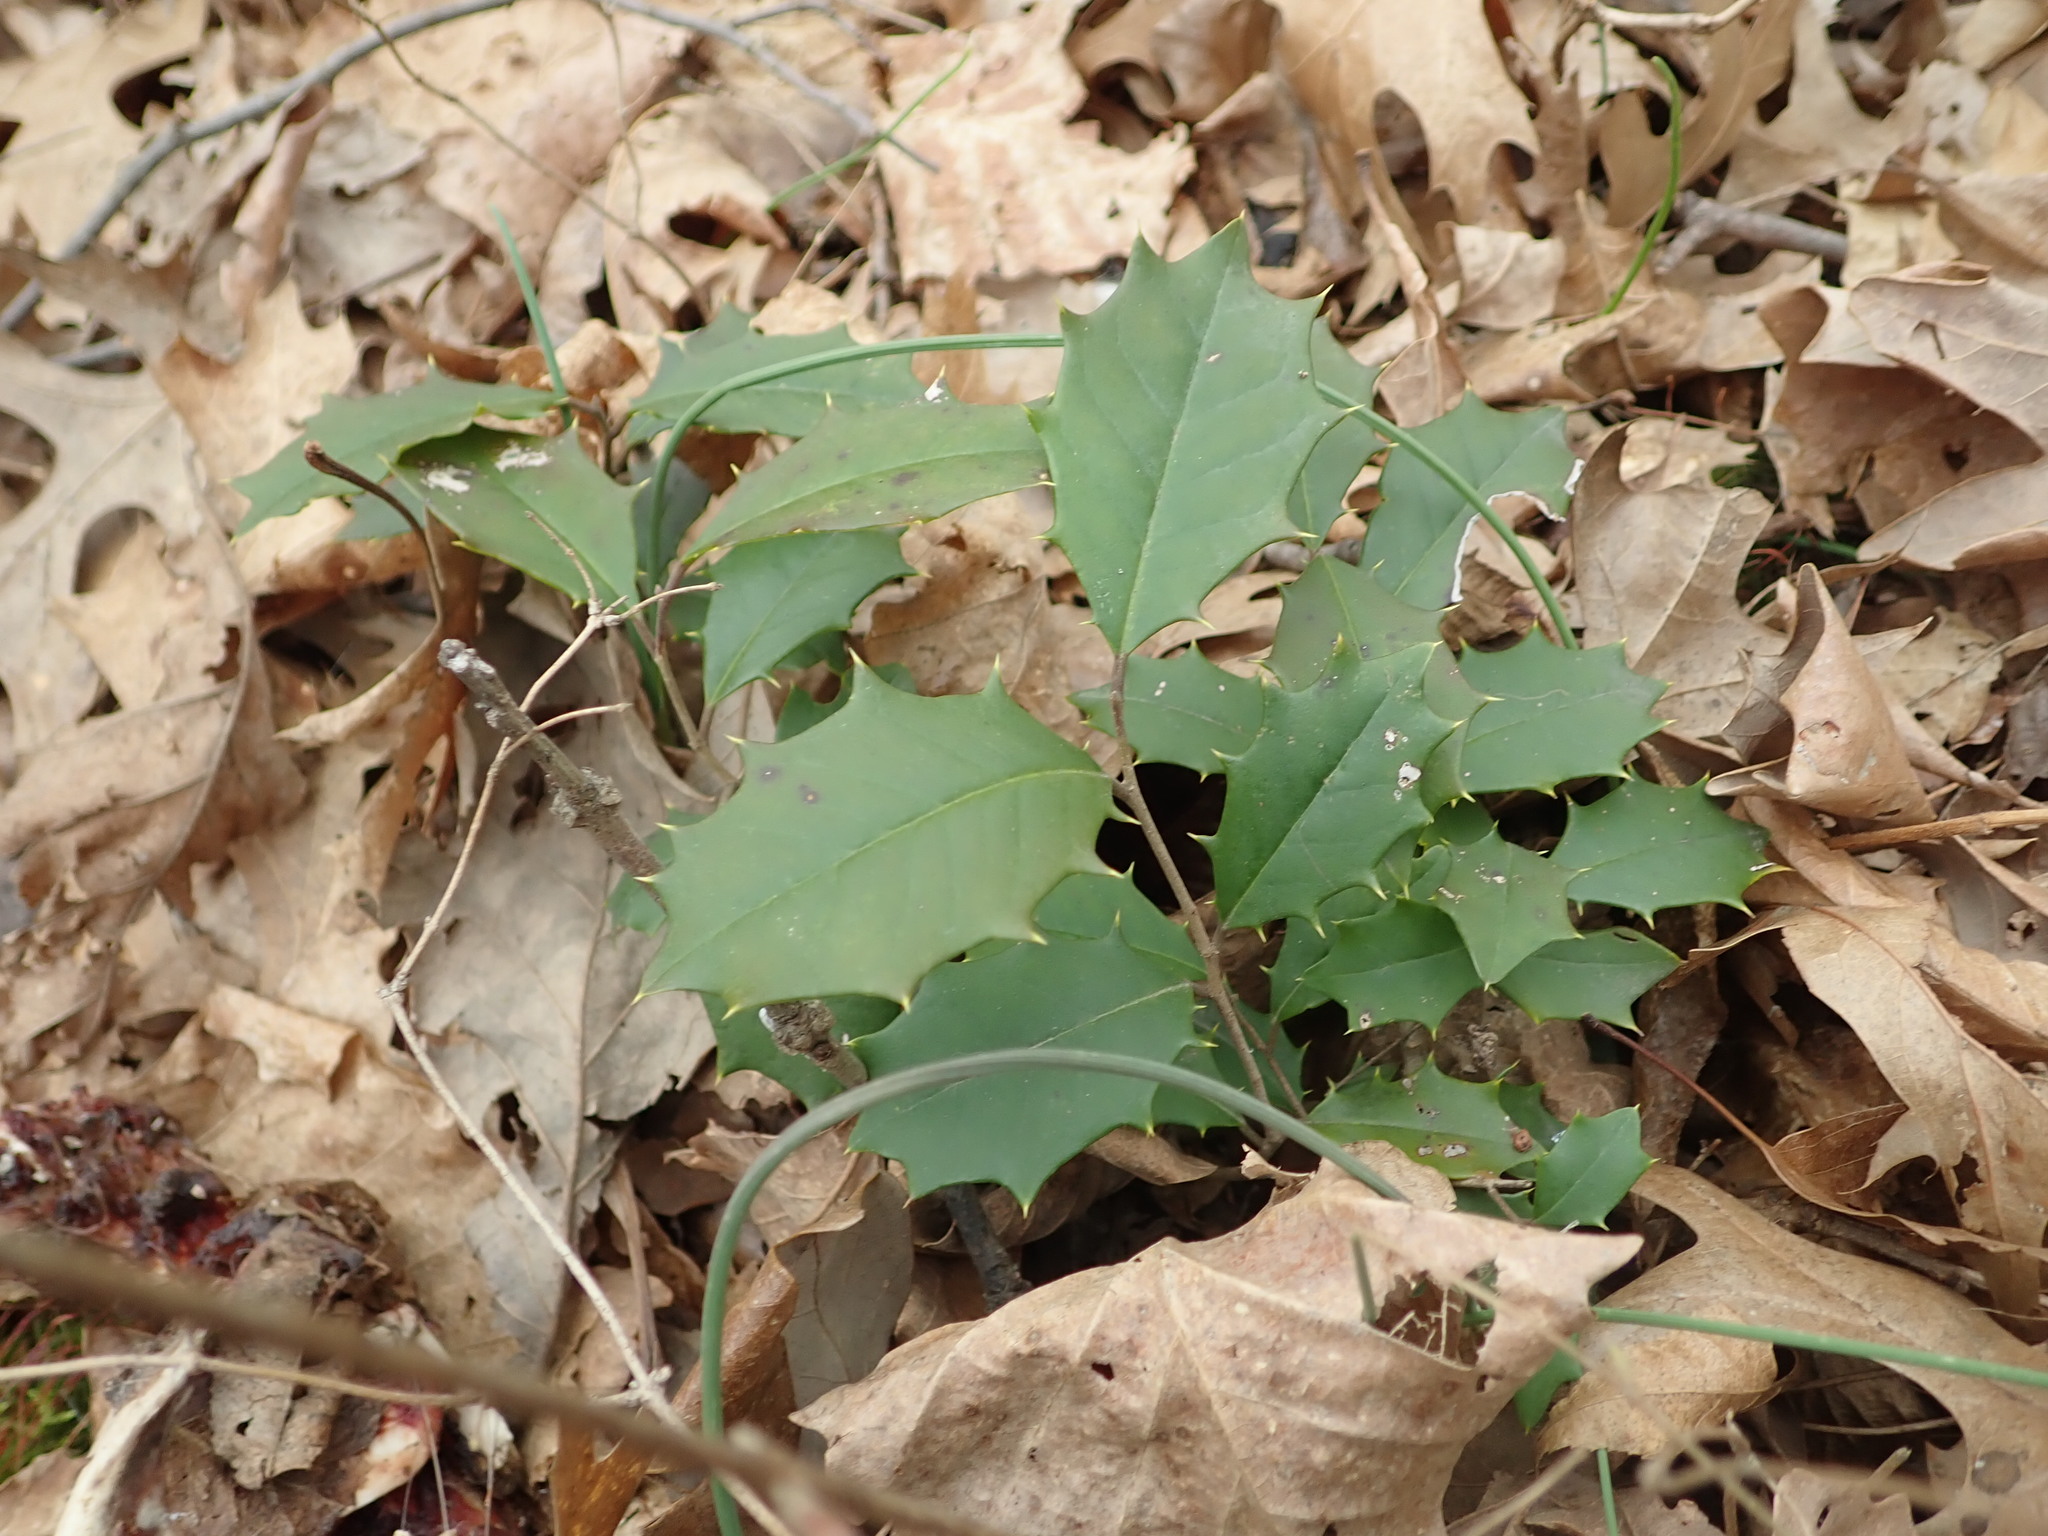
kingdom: Plantae
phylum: Tracheophyta
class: Magnoliopsida
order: Aquifoliales
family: Aquifoliaceae
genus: Ilex
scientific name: Ilex opaca
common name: American holly
